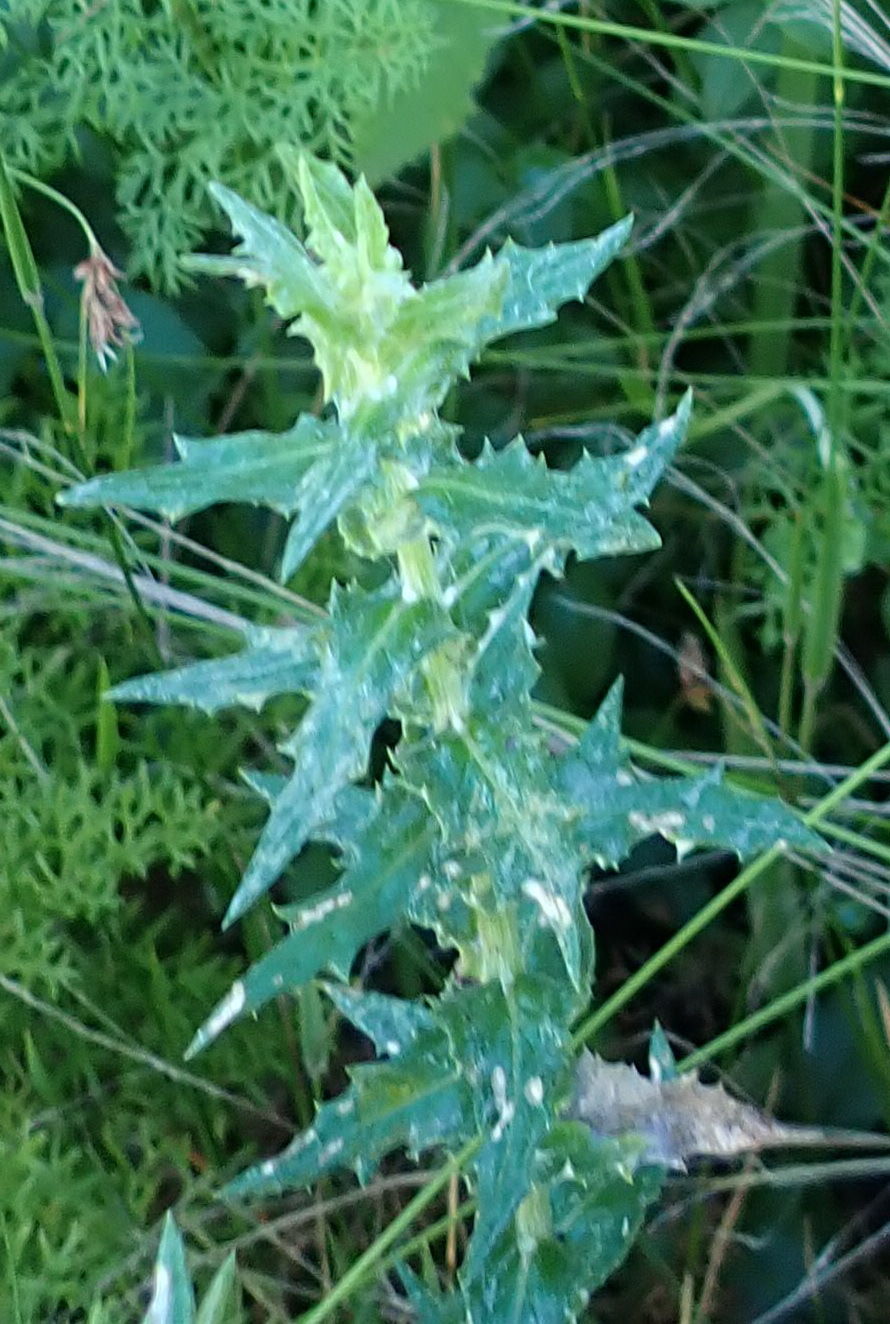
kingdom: Plantae
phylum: Tracheophyta
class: Magnoliopsida
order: Asterales
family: Asteraceae
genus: Senecio
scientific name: Senecio ilicifolius
